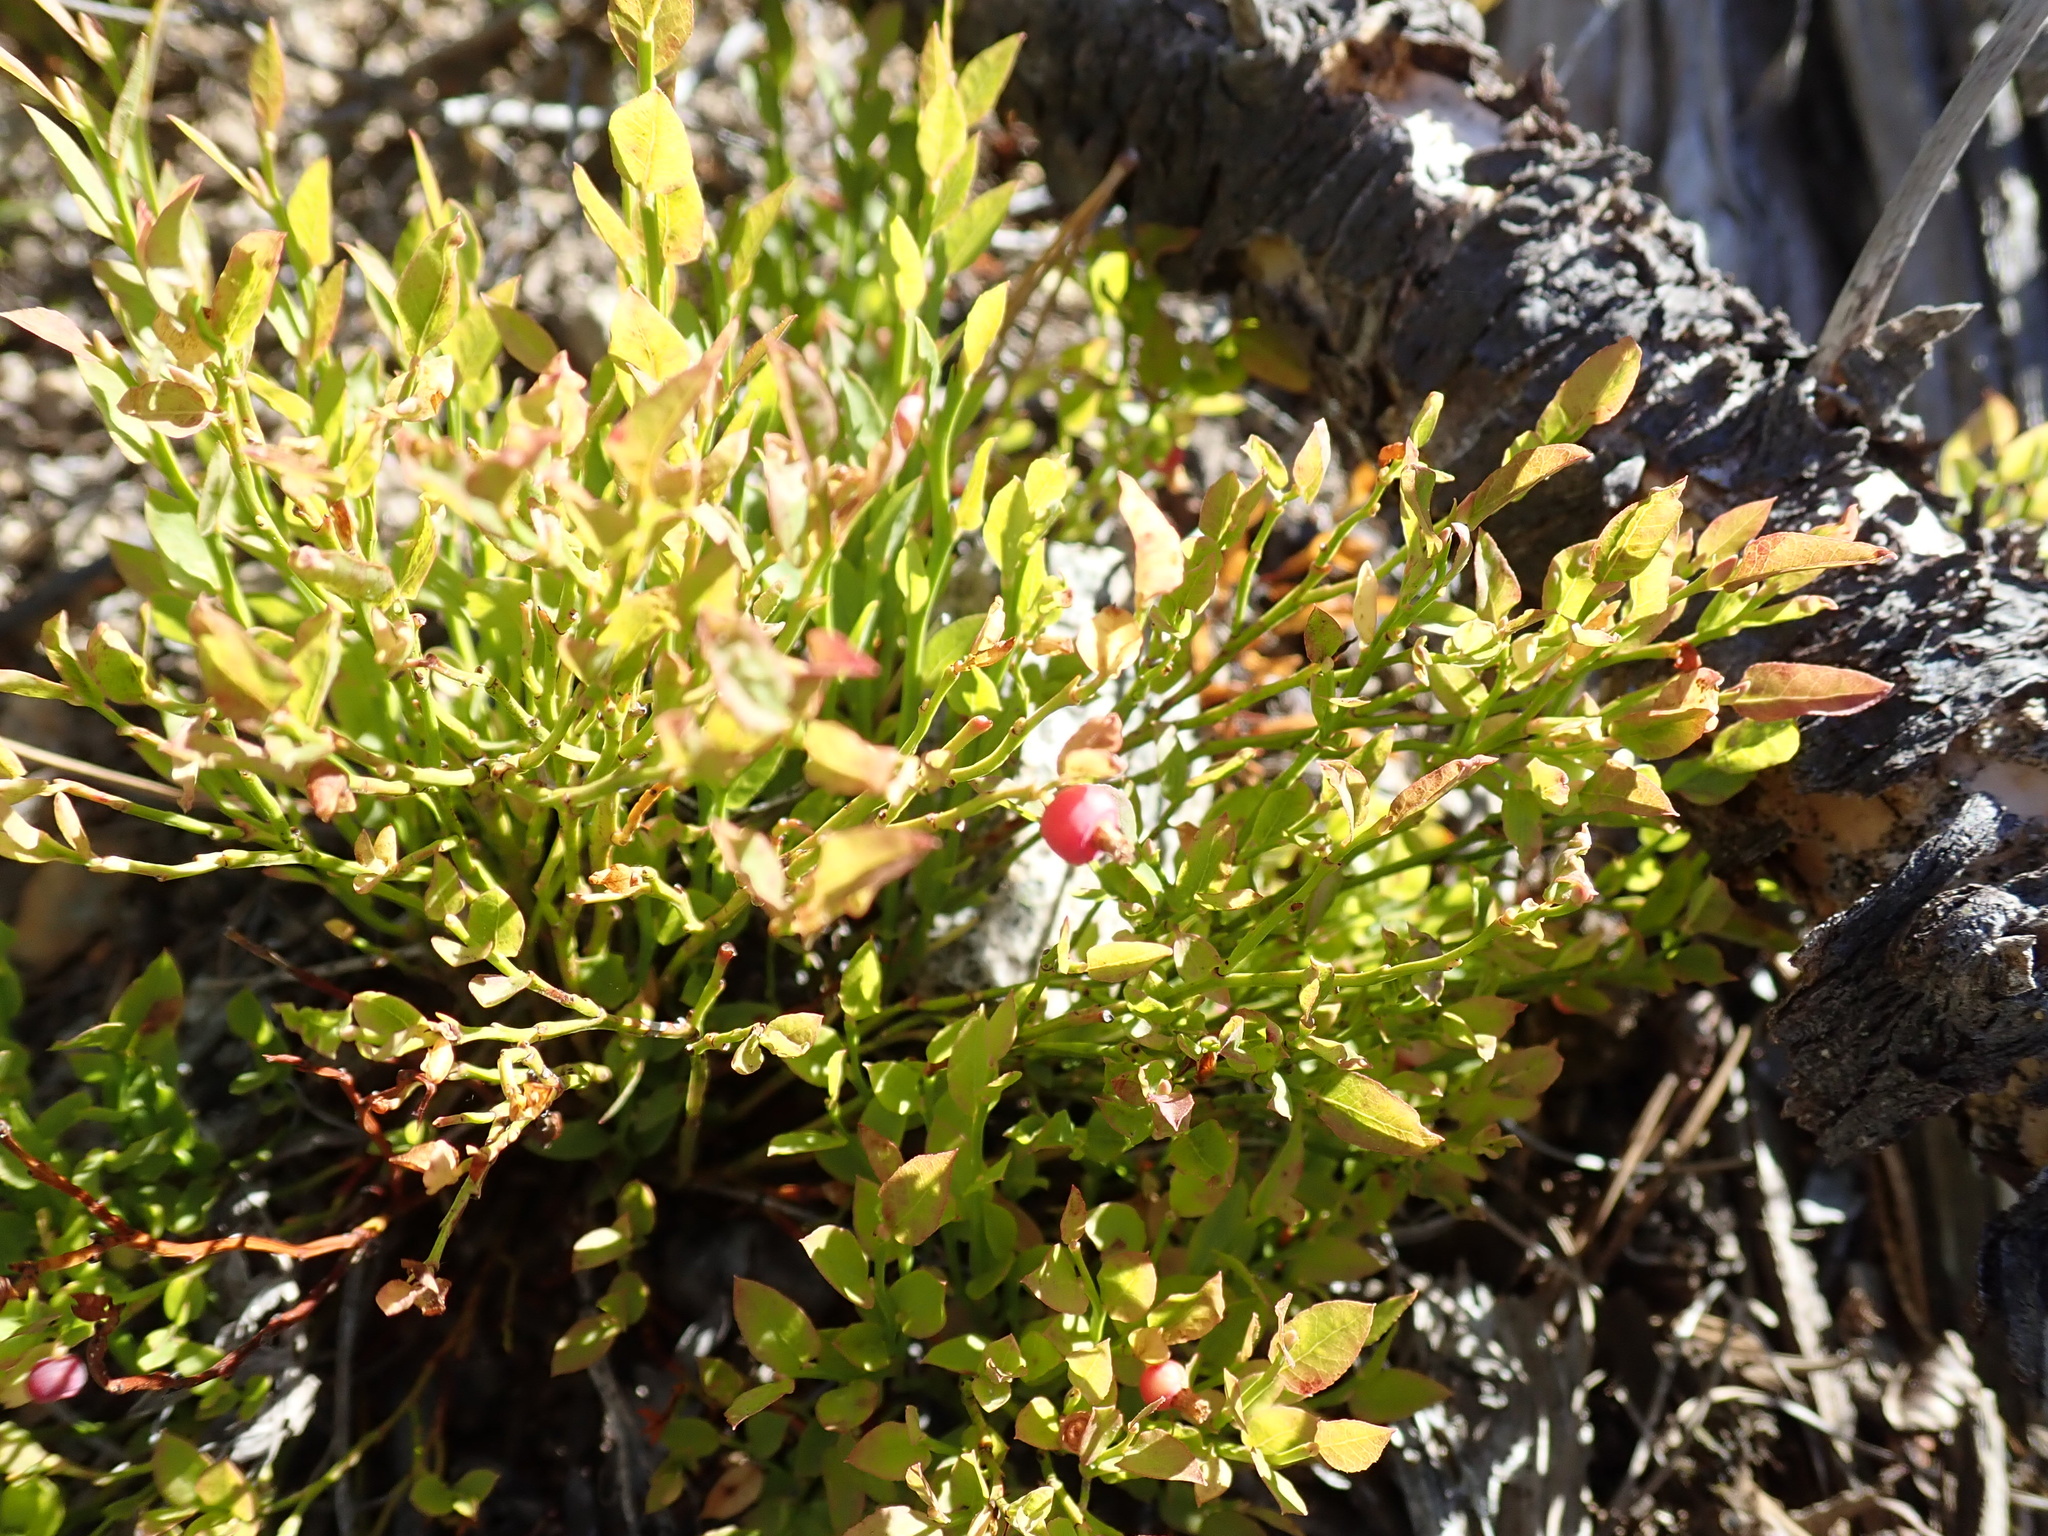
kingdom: Plantae
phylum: Tracheophyta
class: Magnoliopsida
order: Ericales
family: Ericaceae
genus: Vaccinium
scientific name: Vaccinium scoparium
